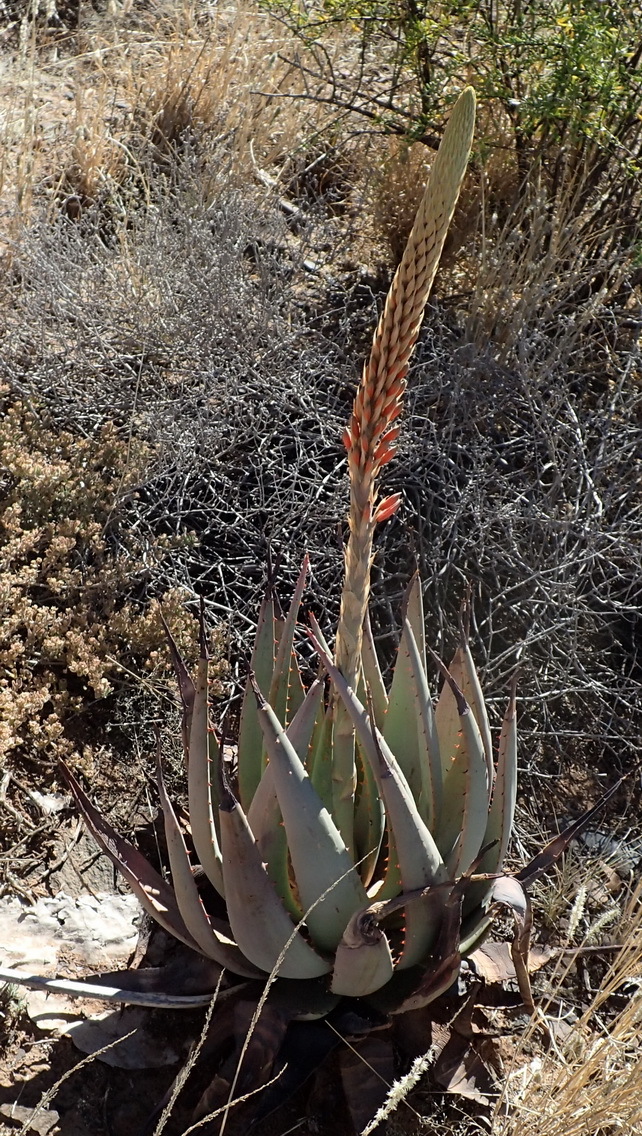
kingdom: Plantae
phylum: Tracheophyta
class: Liliopsida
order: Asparagales
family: Asphodelaceae
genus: Aloe
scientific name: Aloe gariepensis
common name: Orange river aloe
